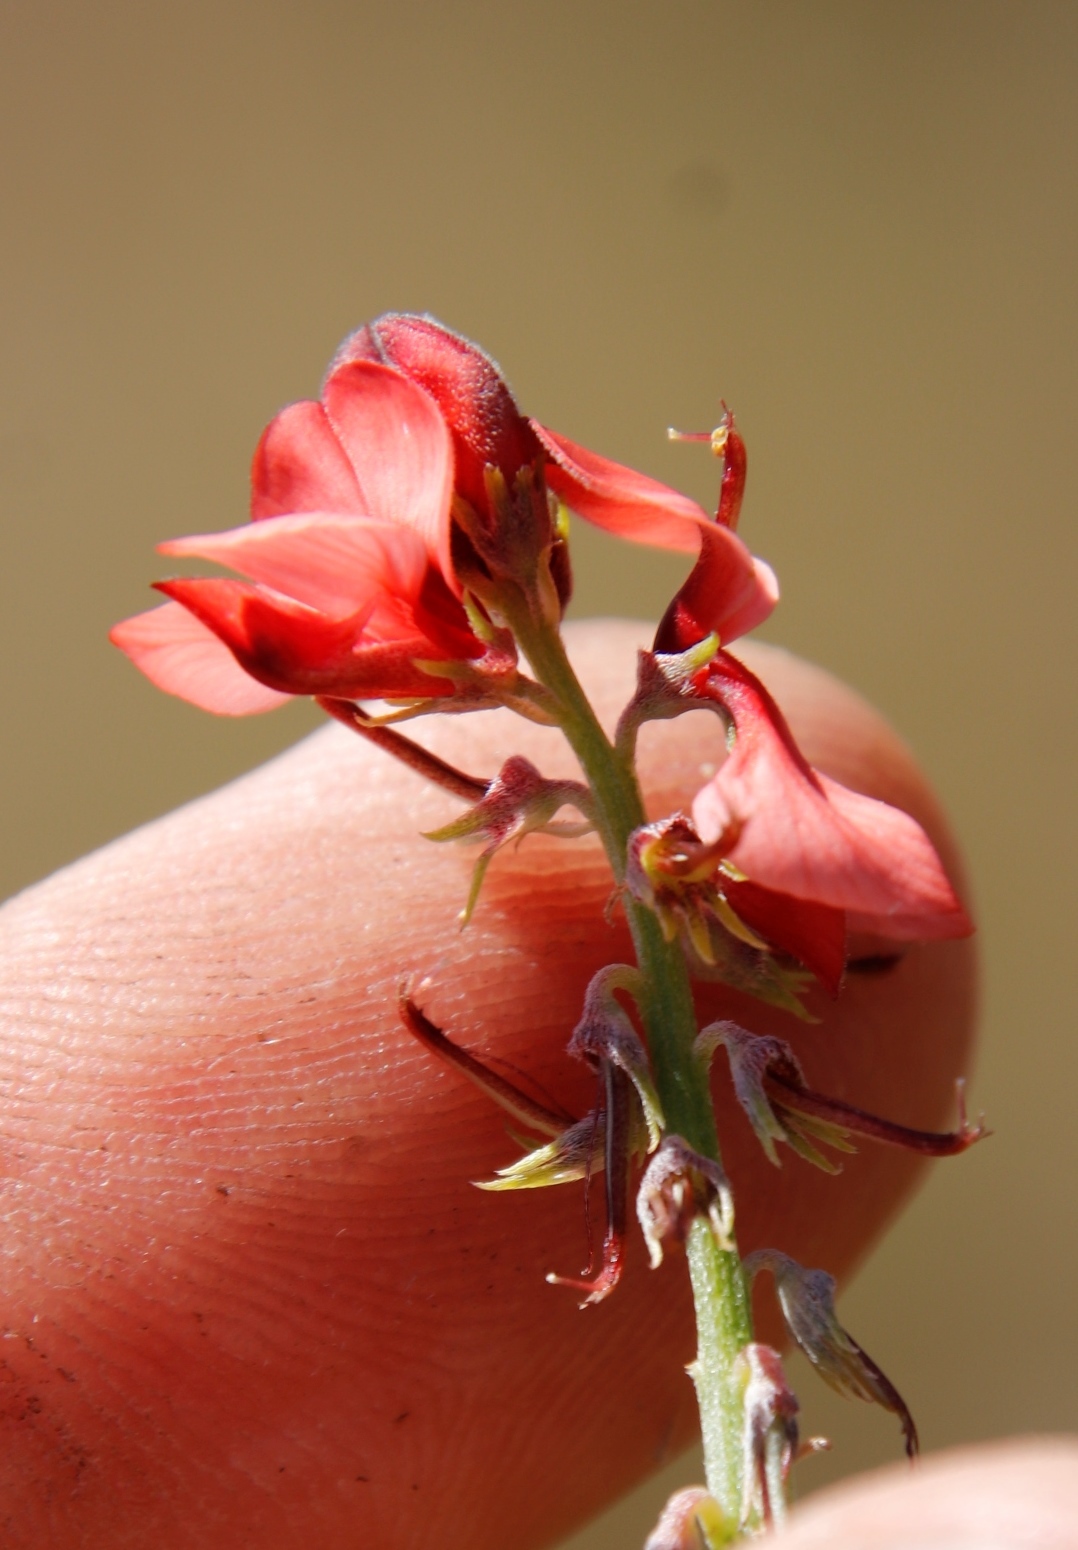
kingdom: Plantae
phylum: Tracheophyta
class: Magnoliopsida
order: Fabales
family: Fabaceae
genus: Indigofera
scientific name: Indigofera complanata
